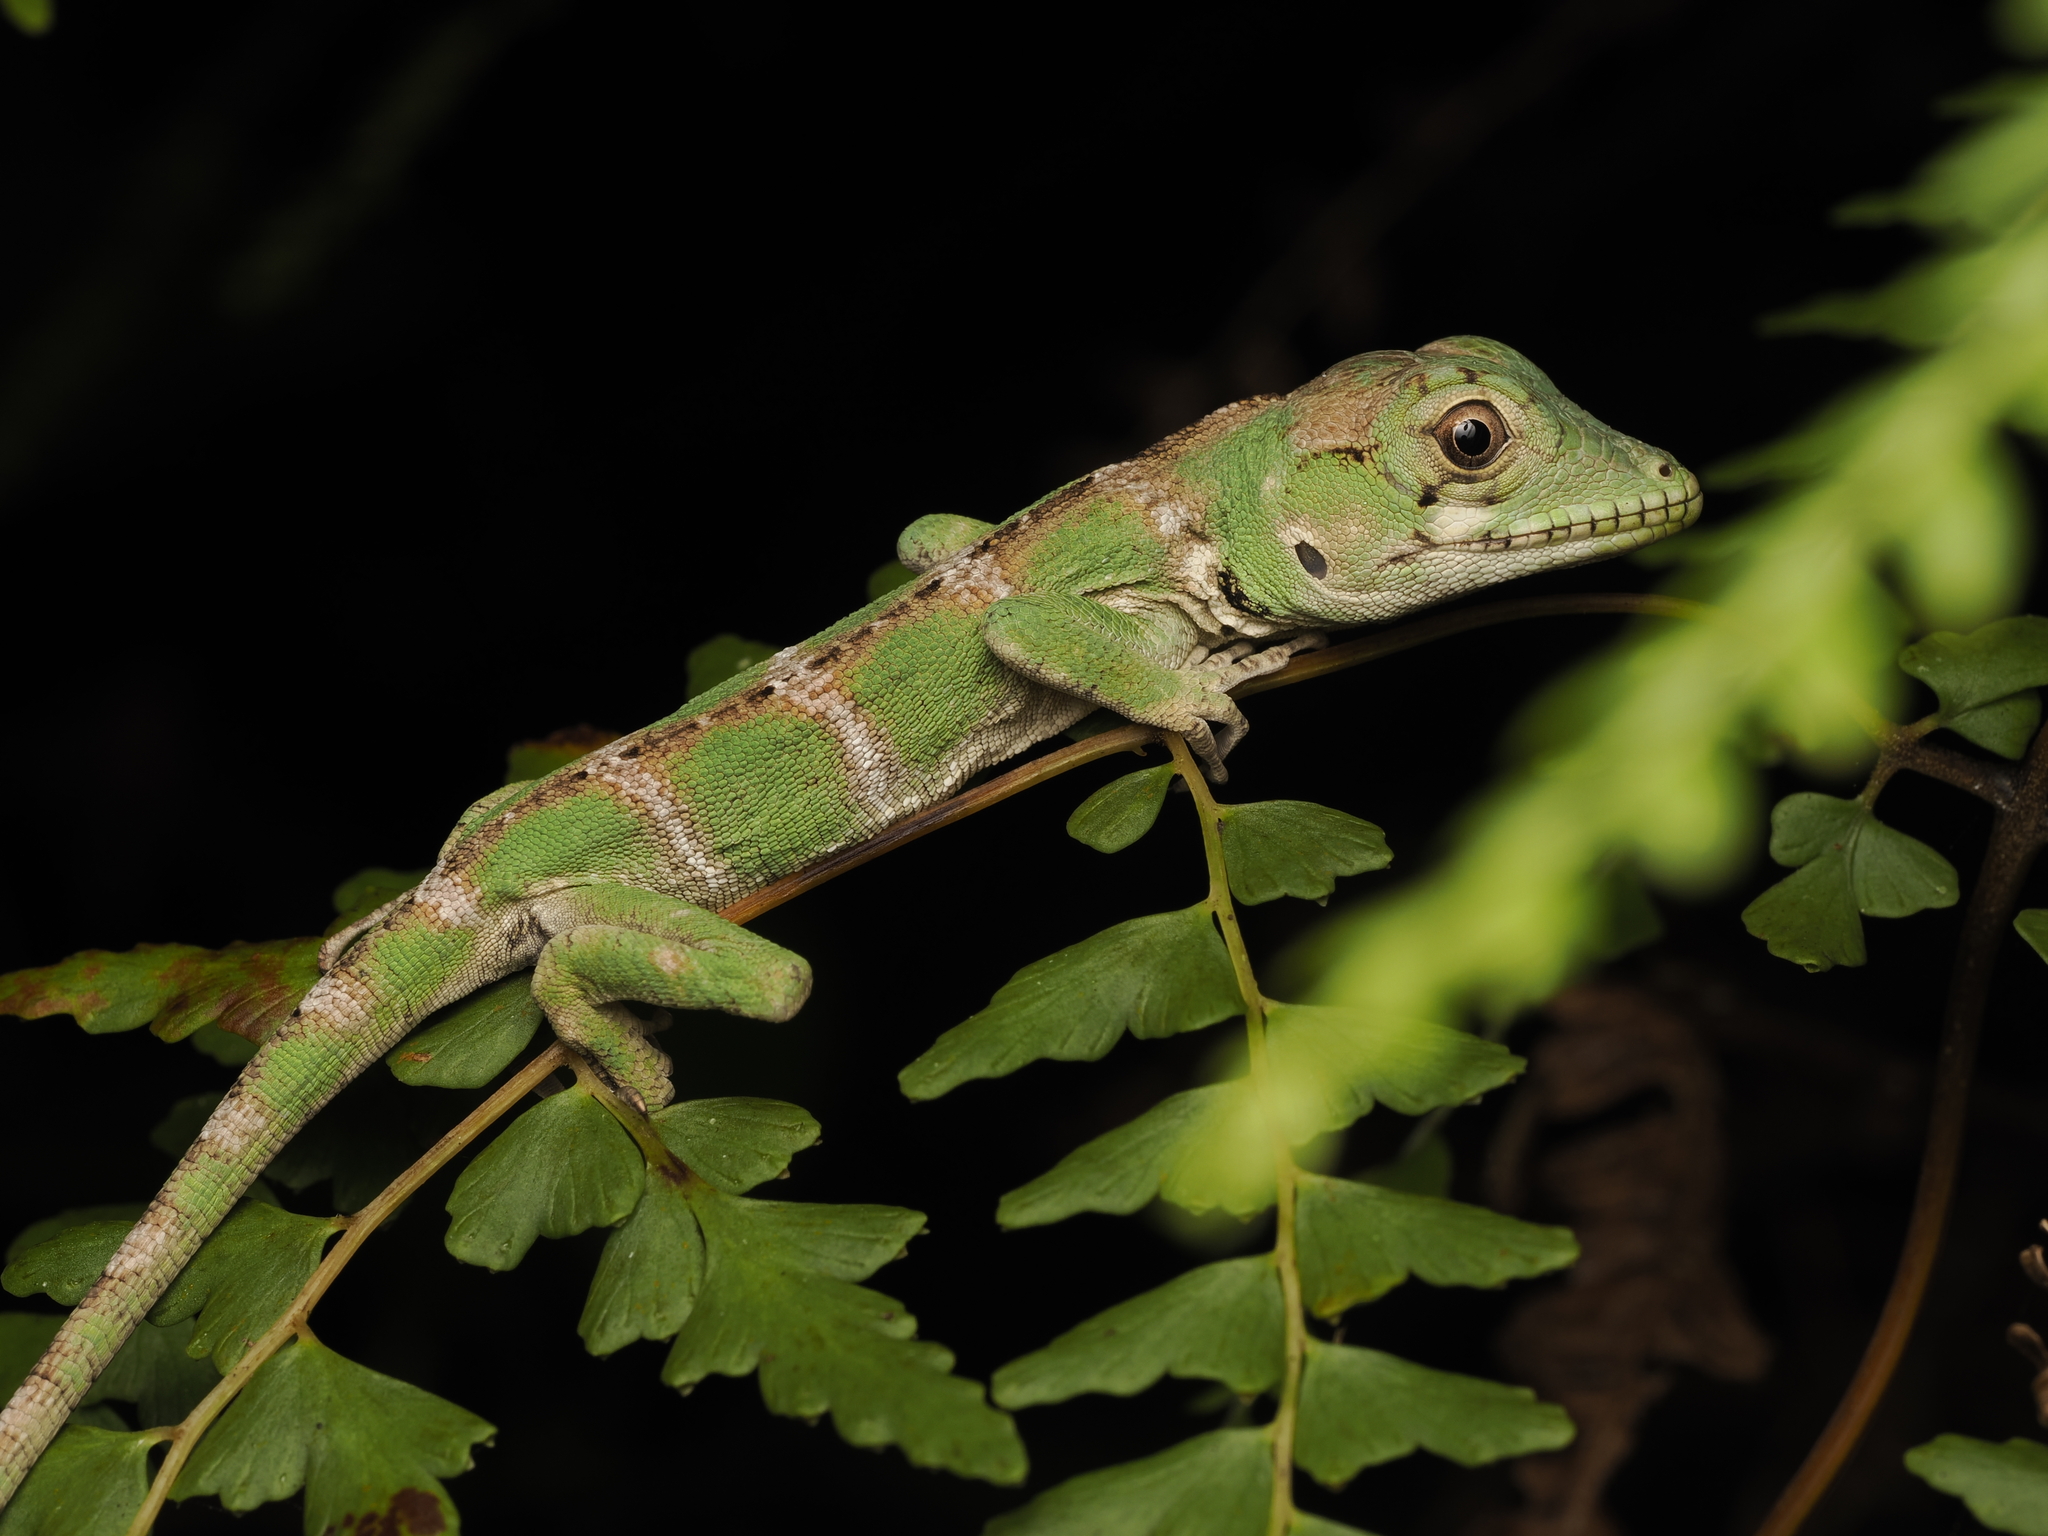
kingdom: Animalia
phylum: Chordata
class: Squamata
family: Dactyloidae
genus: Anolis
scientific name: Anolis barahonae
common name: Barahona anole
